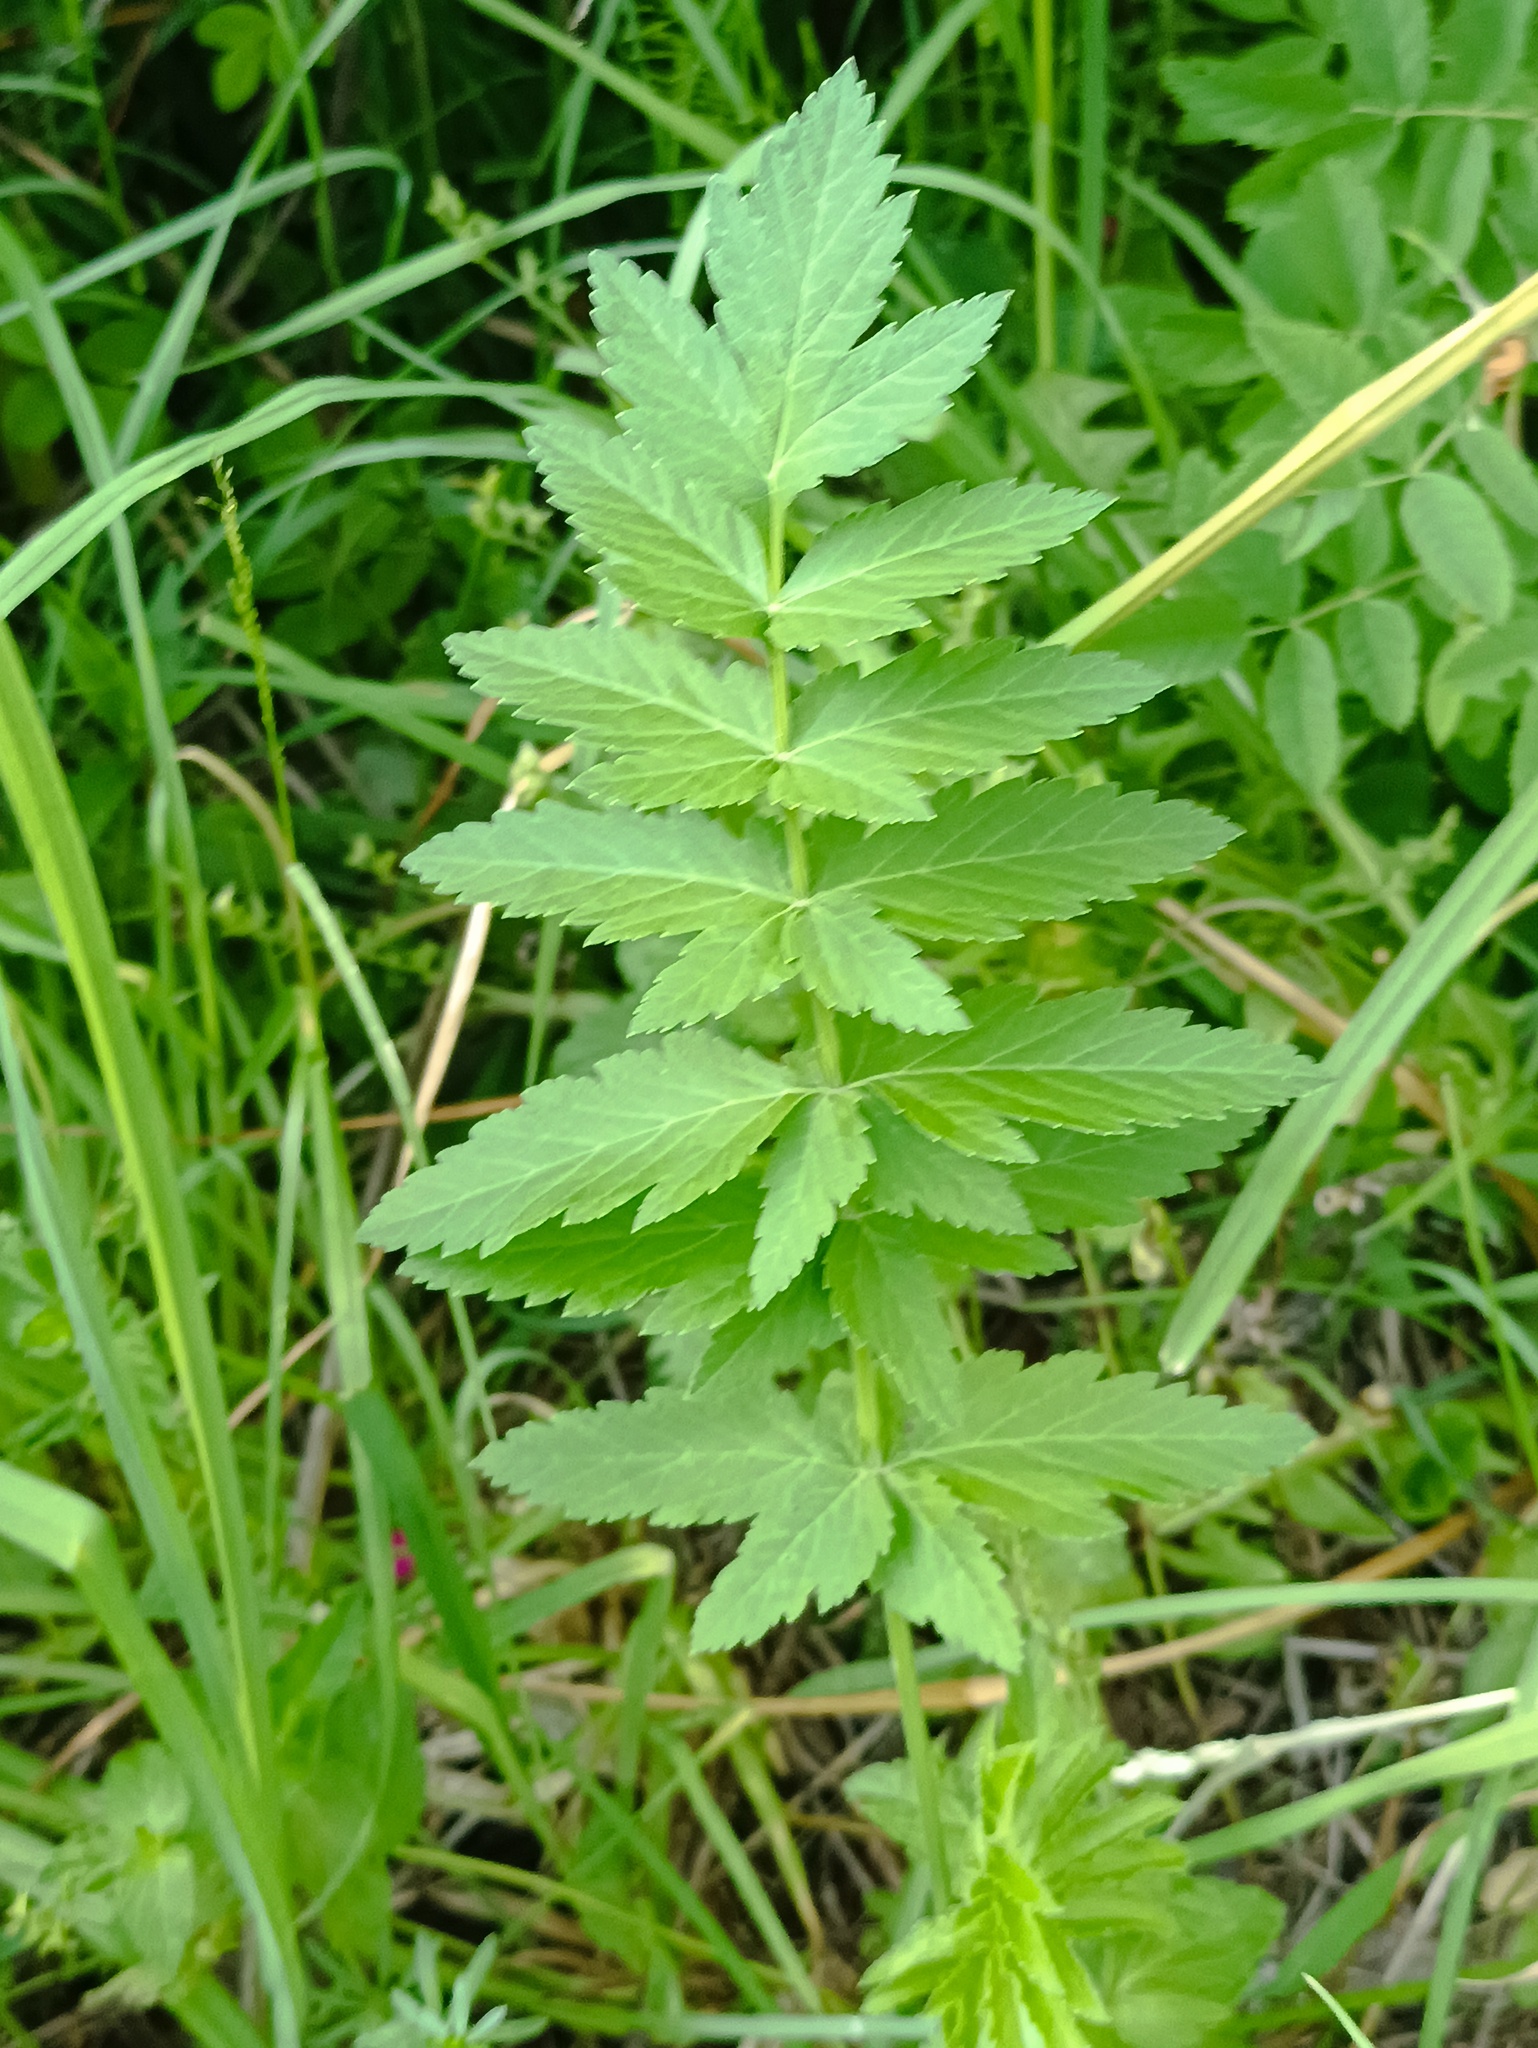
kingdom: Plantae
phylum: Tracheophyta
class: Magnoliopsida
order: Apiales
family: Apiaceae
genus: Pastinaca
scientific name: Pastinaca sativa
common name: Wild parsnip
